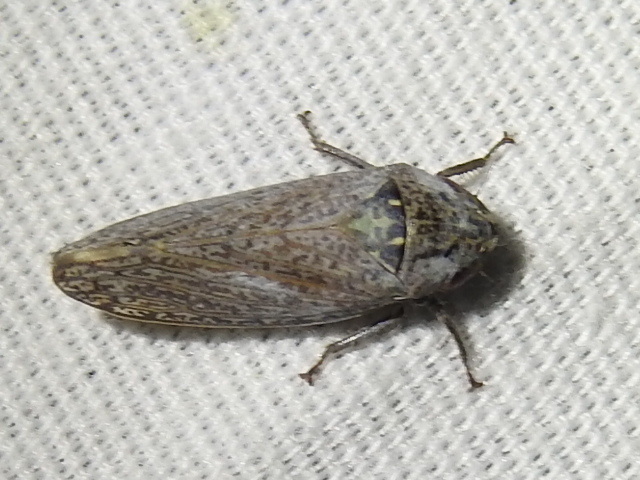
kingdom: Animalia
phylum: Arthropoda
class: Insecta
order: Hemiptera
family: Cicadellidae
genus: Hamana
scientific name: Hamana manifesta
